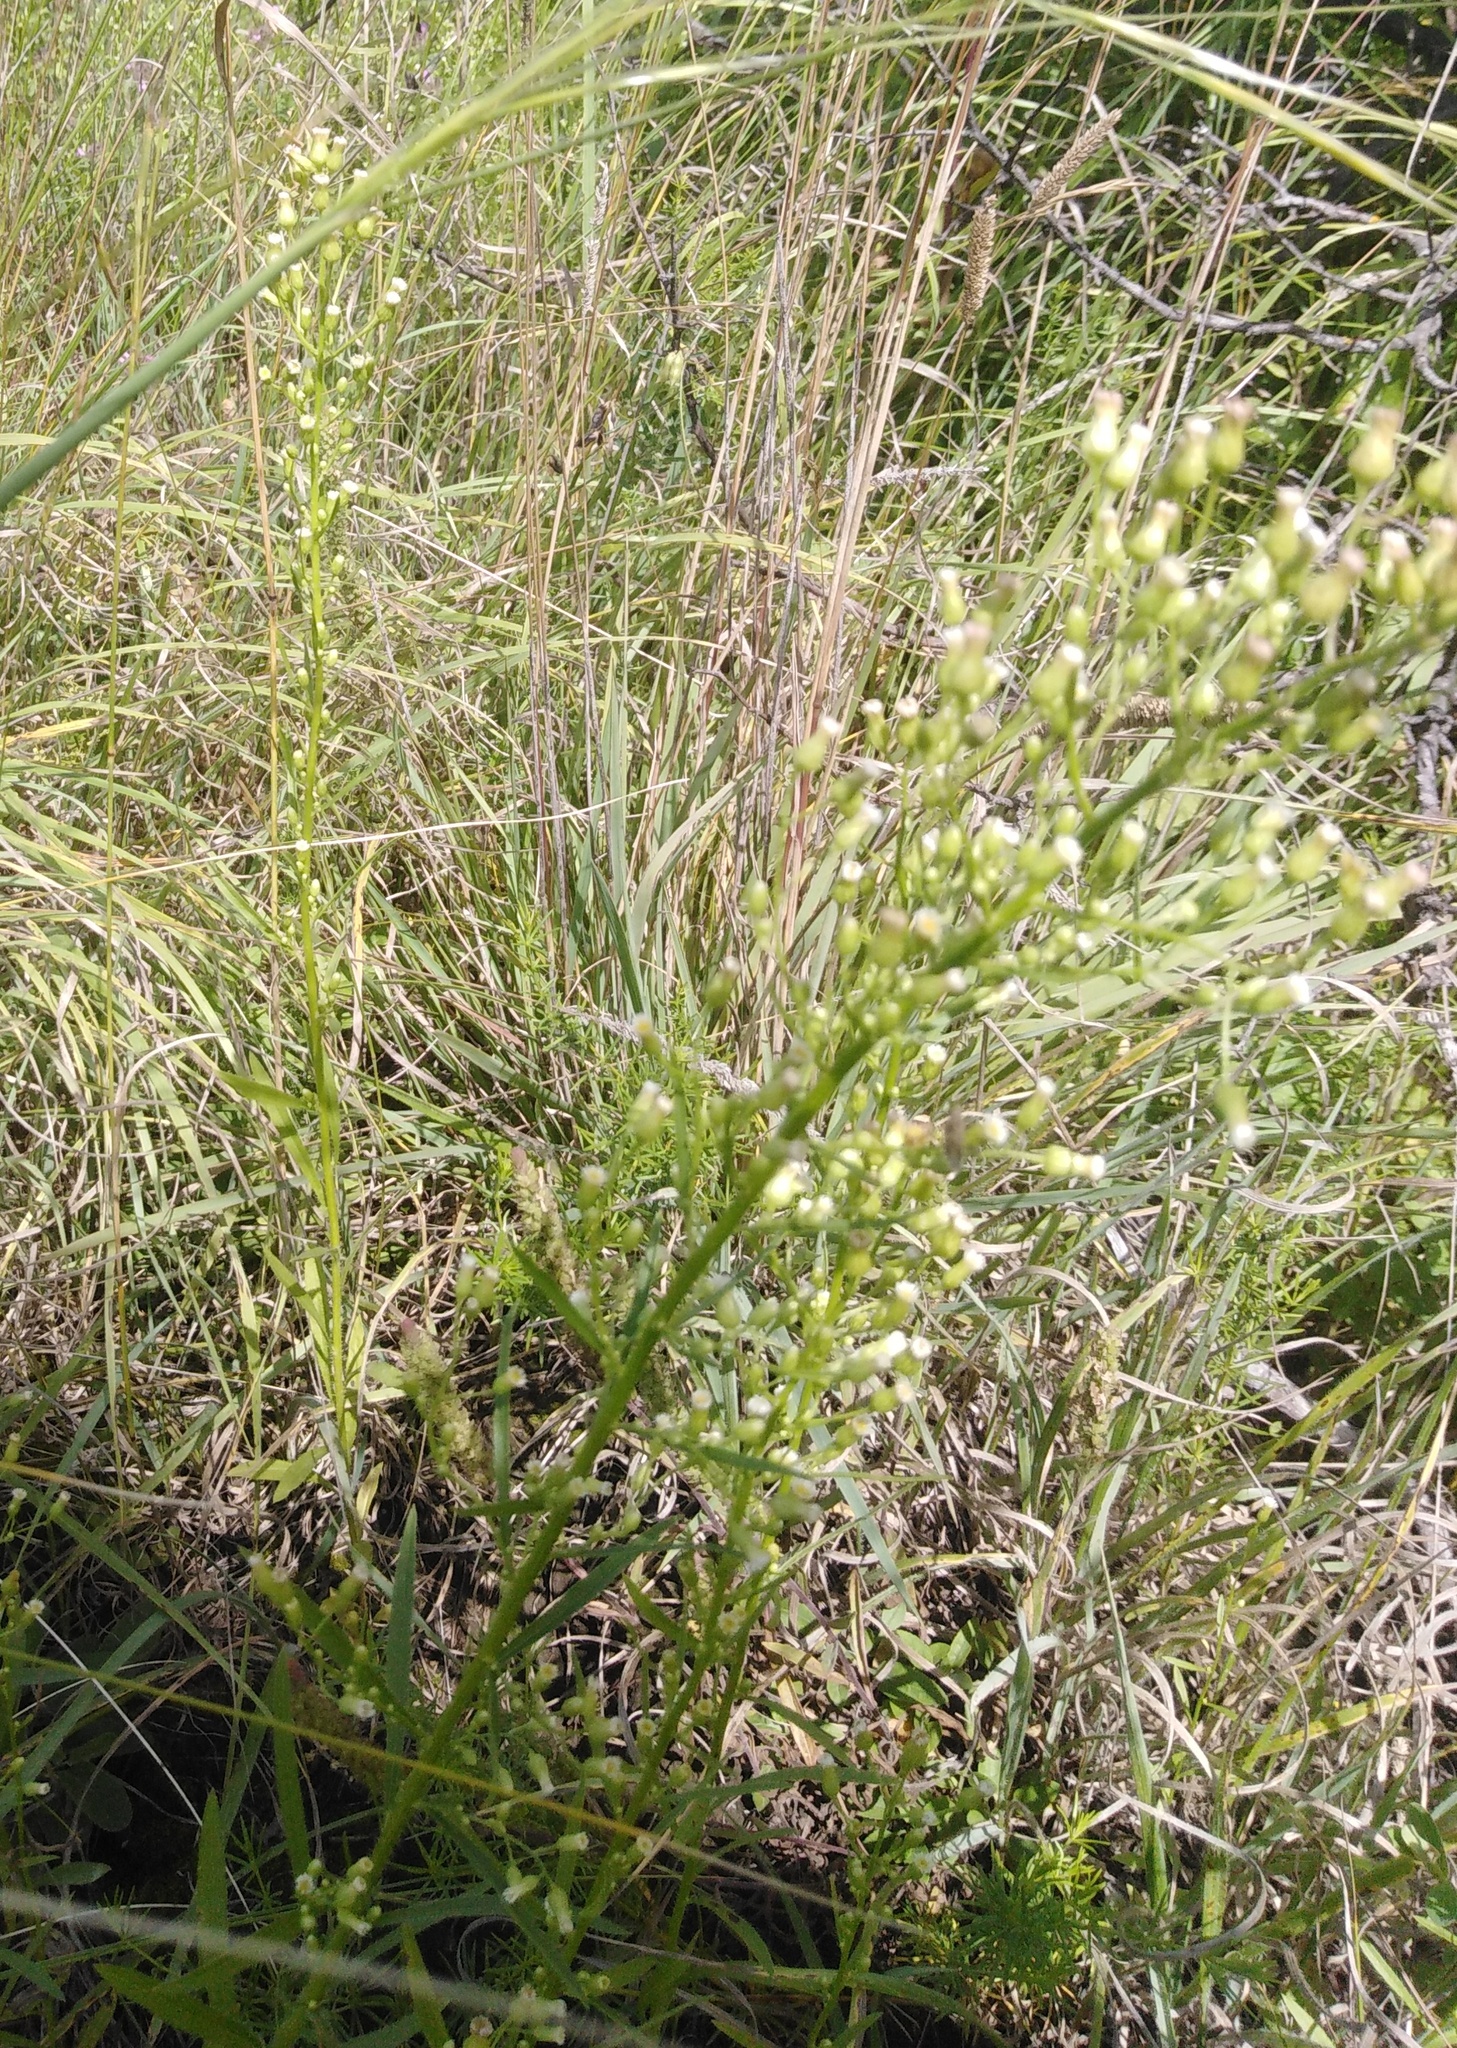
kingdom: Plantae
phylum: Tracheophyta
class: Magnoliopsida
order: Asterales
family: Asteraceae
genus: Erigeron
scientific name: Erigeron canadensis
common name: Canadian fleabane
